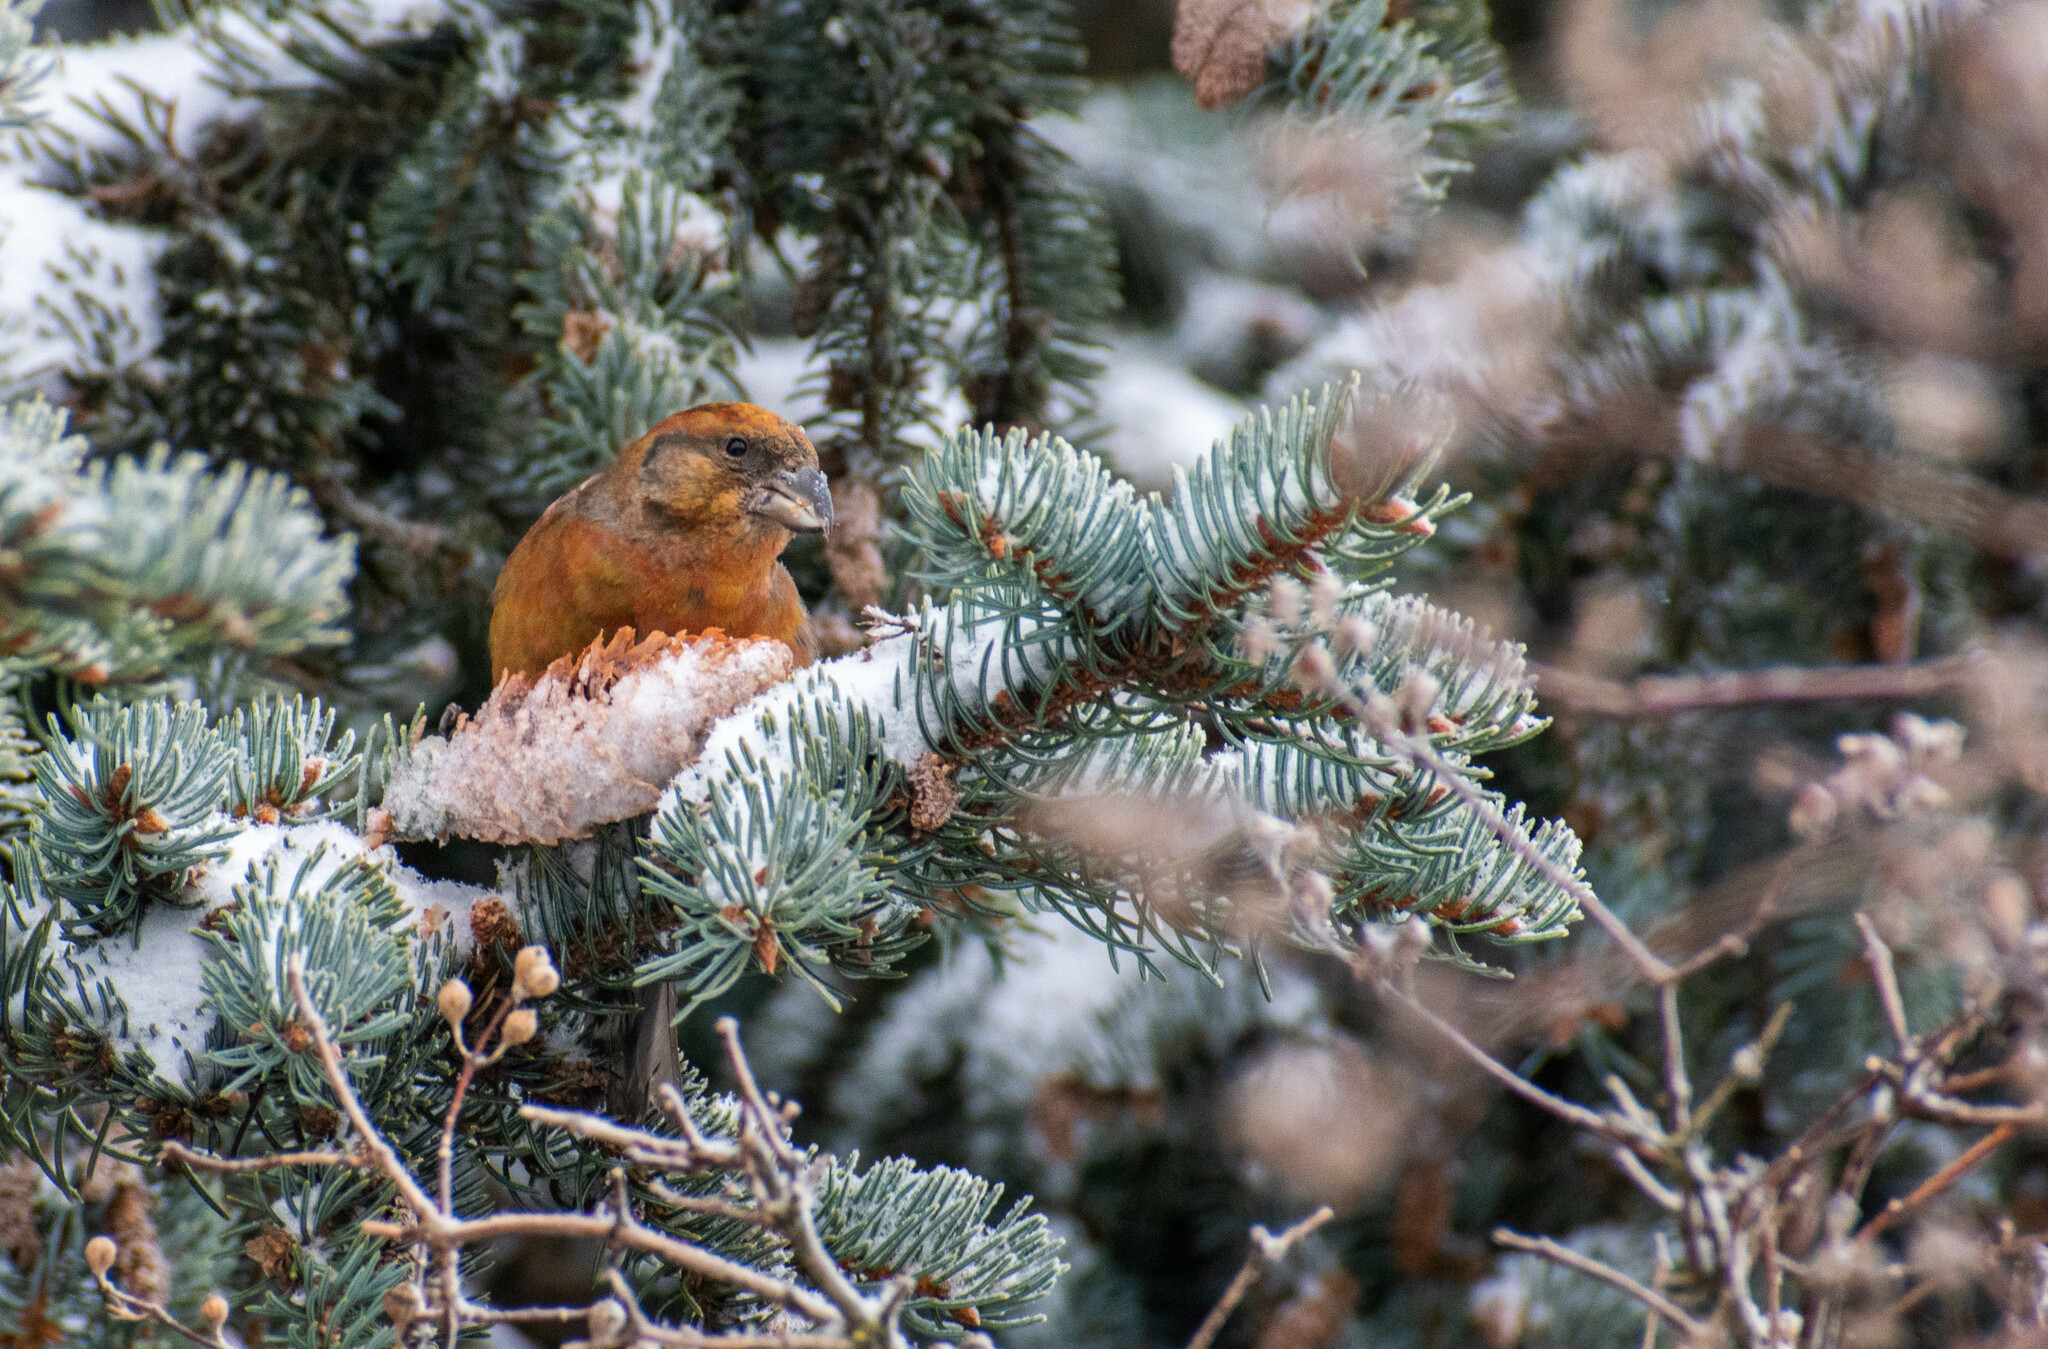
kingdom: Animalia
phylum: Chordata
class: Aves
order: Passeriformes
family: Fringillidae
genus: Loxia
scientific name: Loxia curvirostra
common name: Red crossbill
